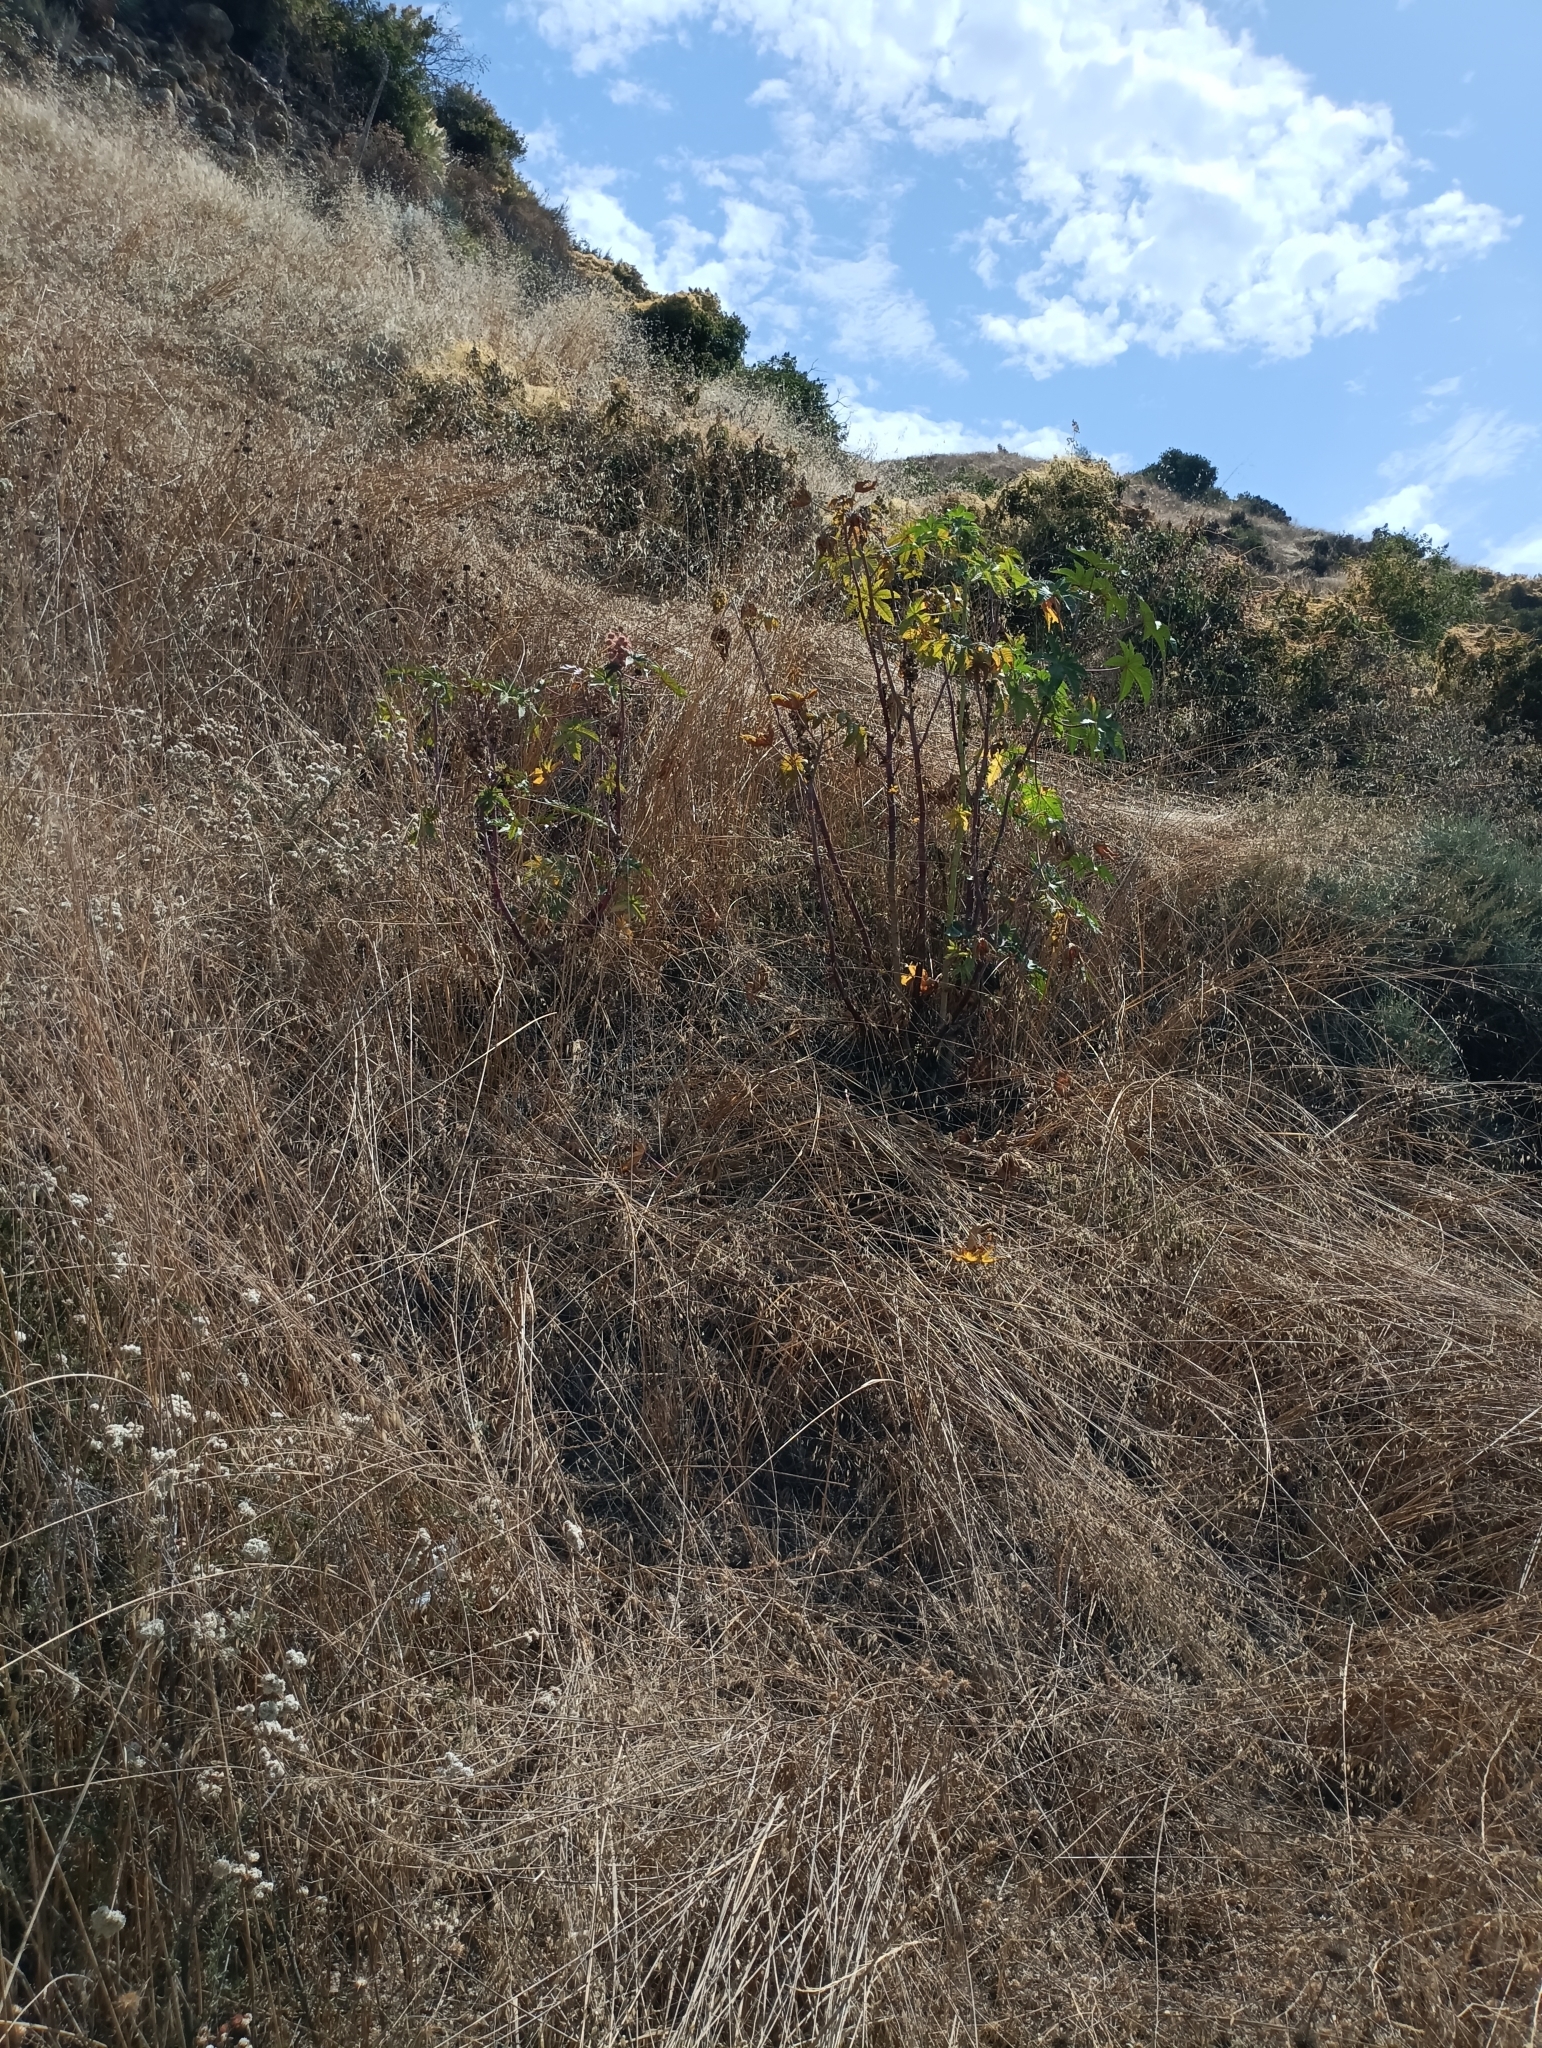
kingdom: Plantae
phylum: Tracheophyta
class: Magnoliopsida
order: Malpighiales
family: Euphorbiaceae
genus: Ricinus
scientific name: Ricinus communis
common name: Castor-oil-plant
